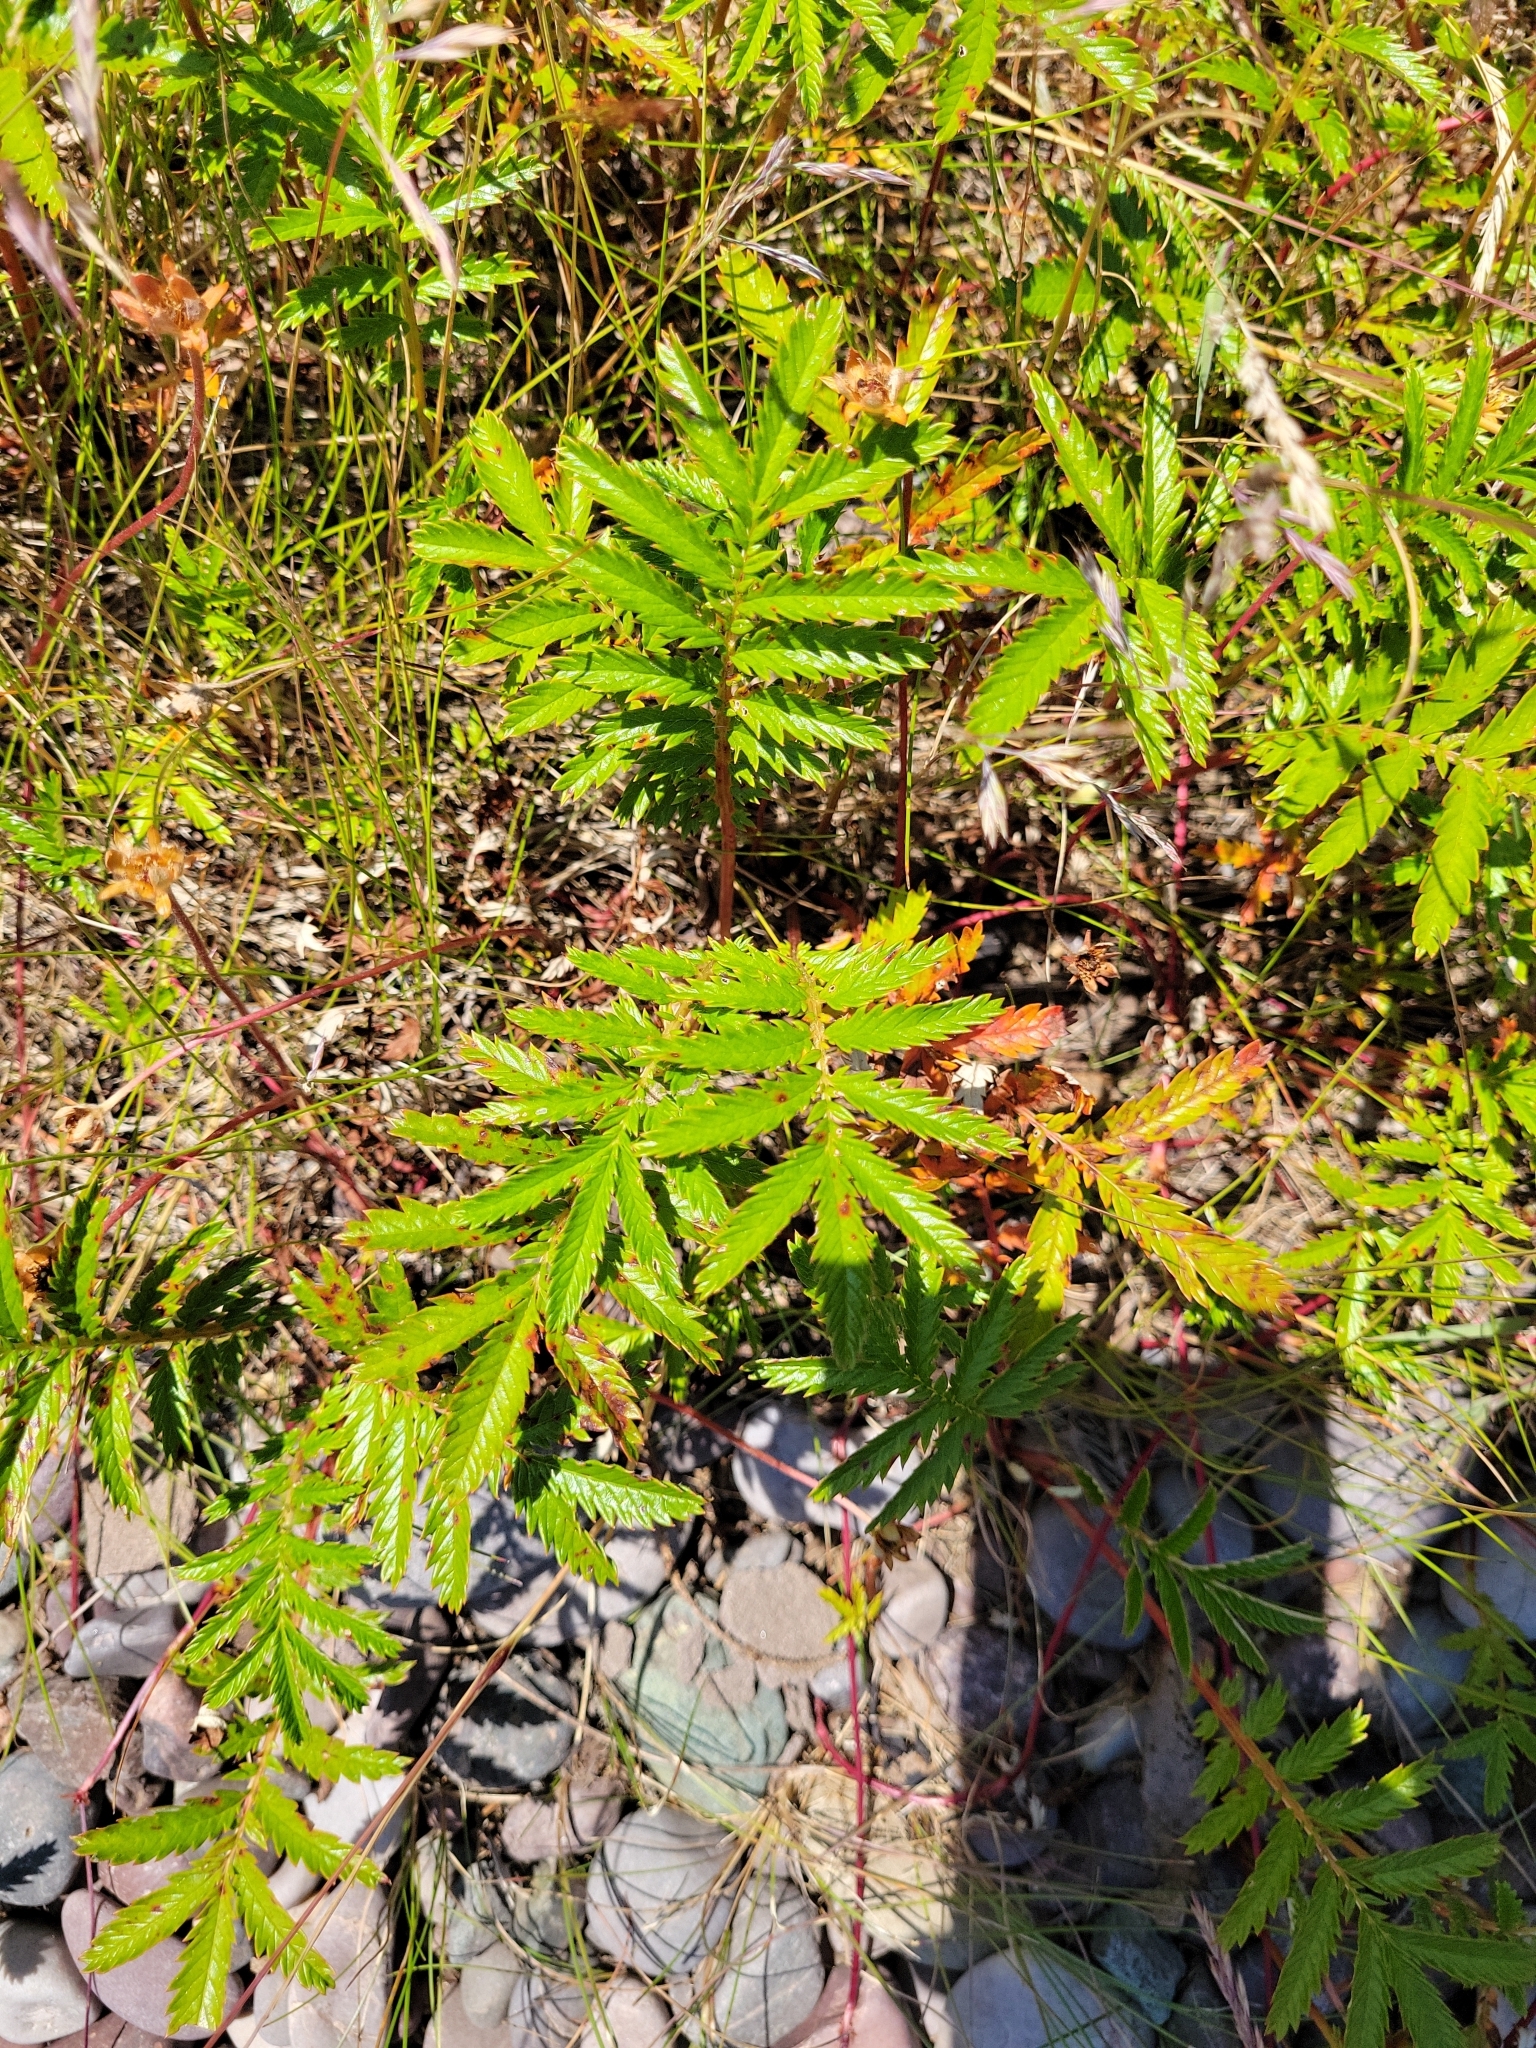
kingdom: Plantae
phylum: Tracheophyta
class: Magnoliopsida
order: Rosales
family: Rosaceae
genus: Argentina
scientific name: Argentina anserina
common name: Common silverweed
